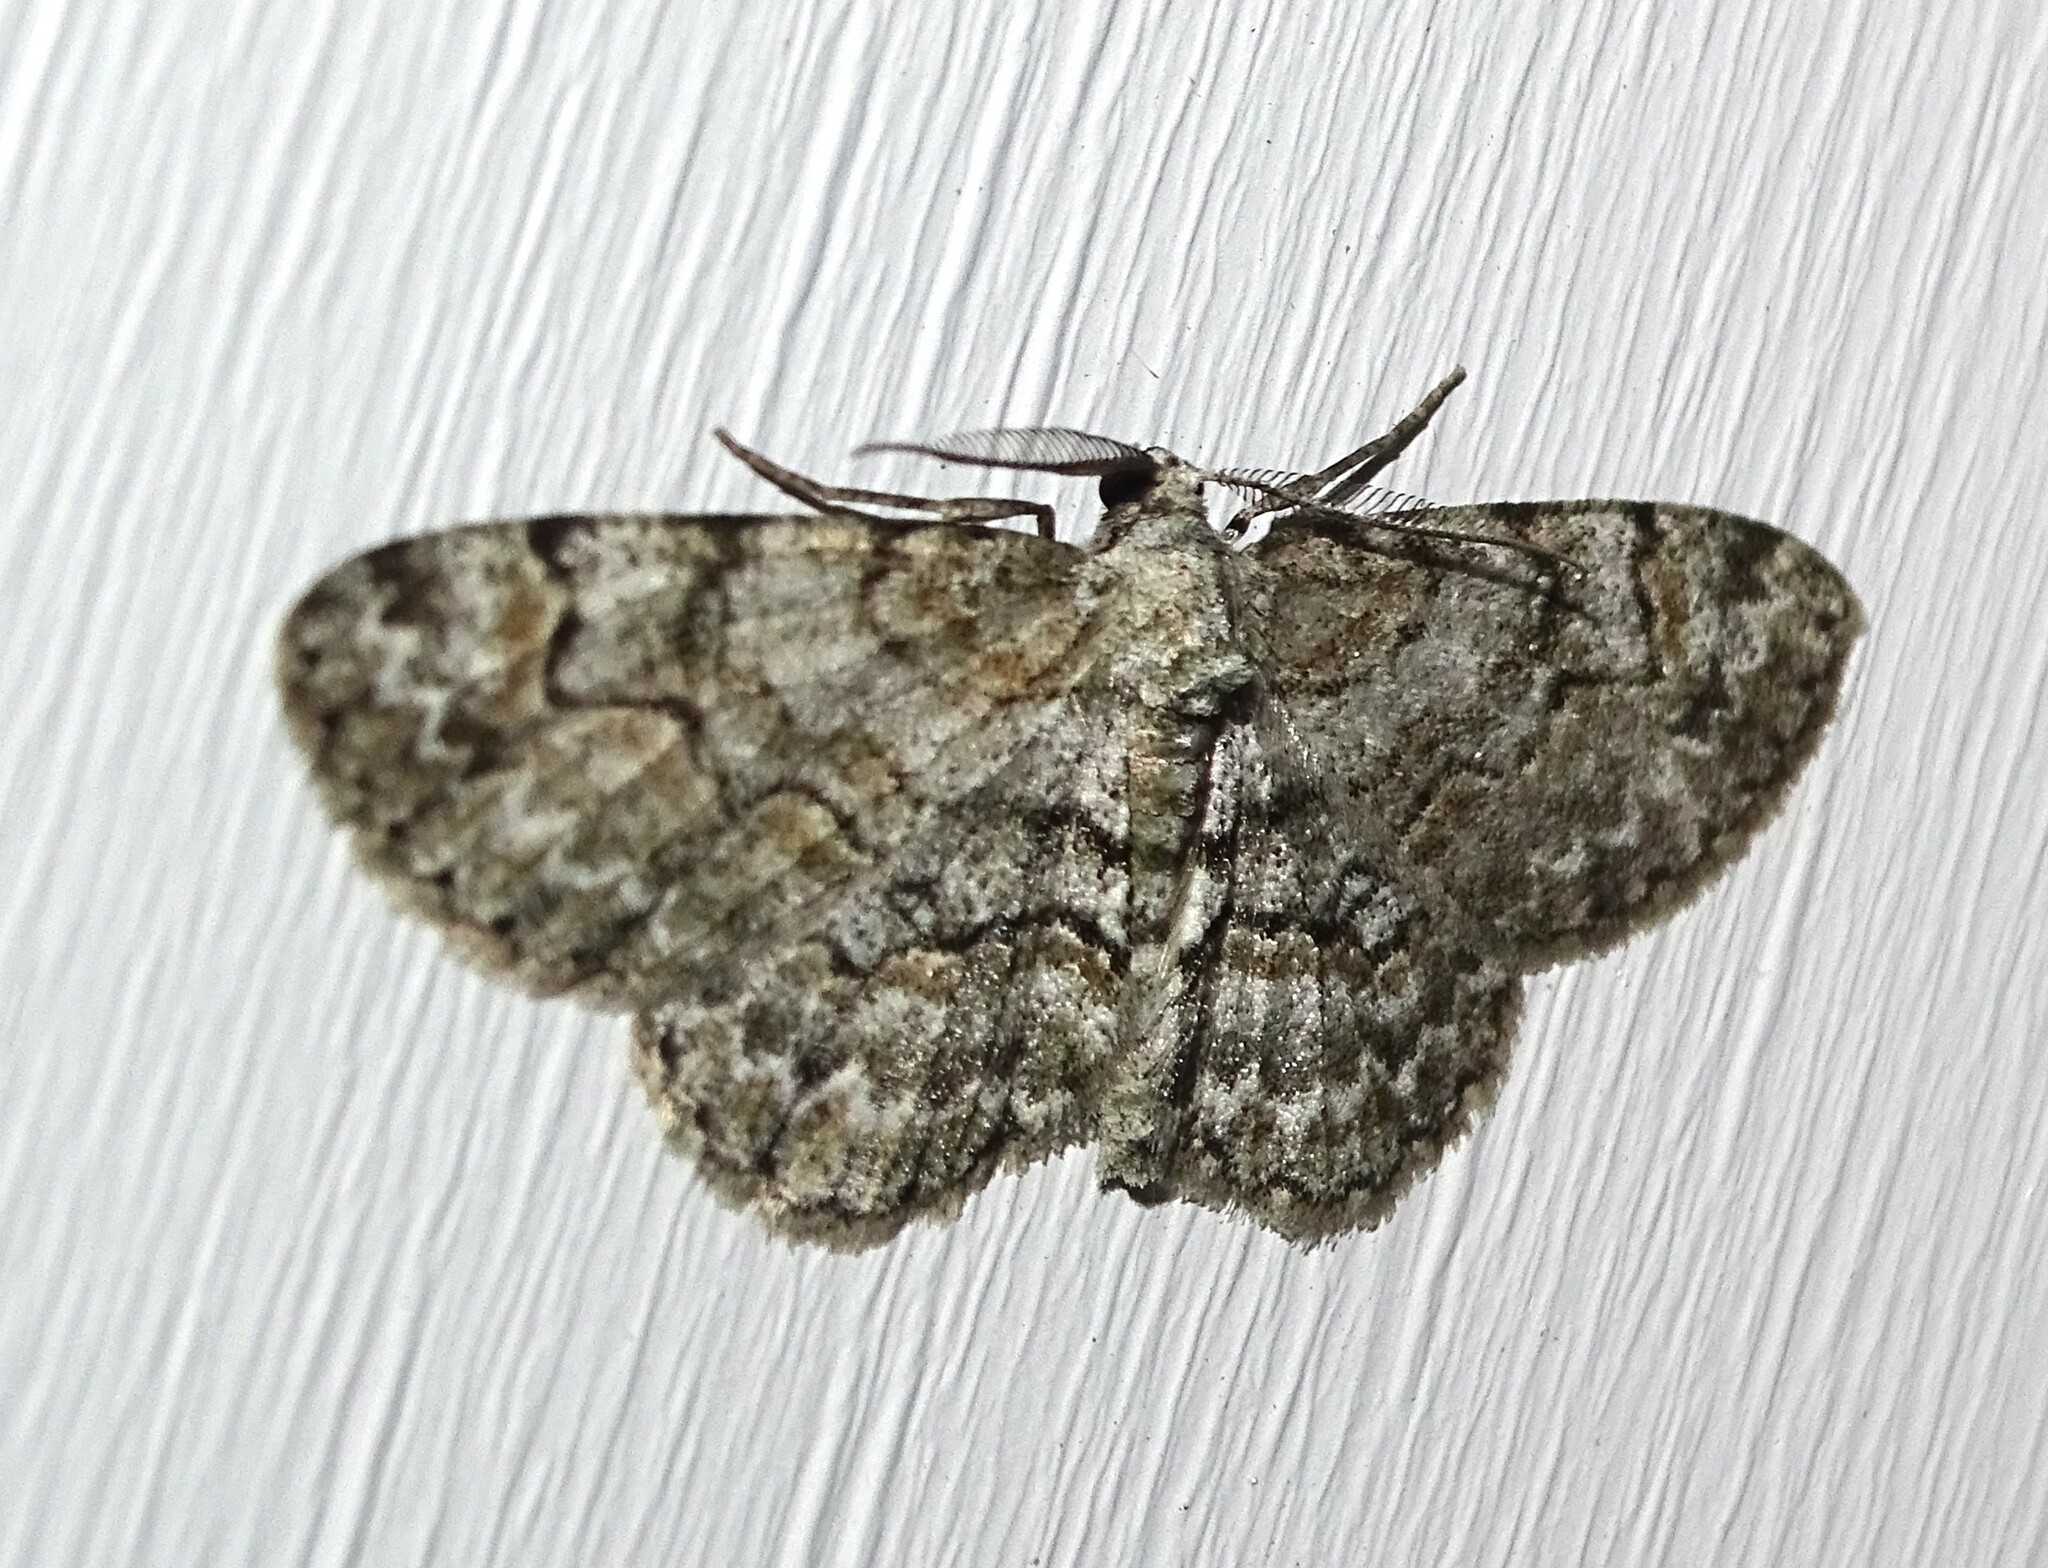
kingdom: Animalia
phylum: Arthropoda
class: Insecta
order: Lepidoptera
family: Geometridae
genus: Iridopsis
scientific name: Iridopsis ephyraria
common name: Pale-winged gray
